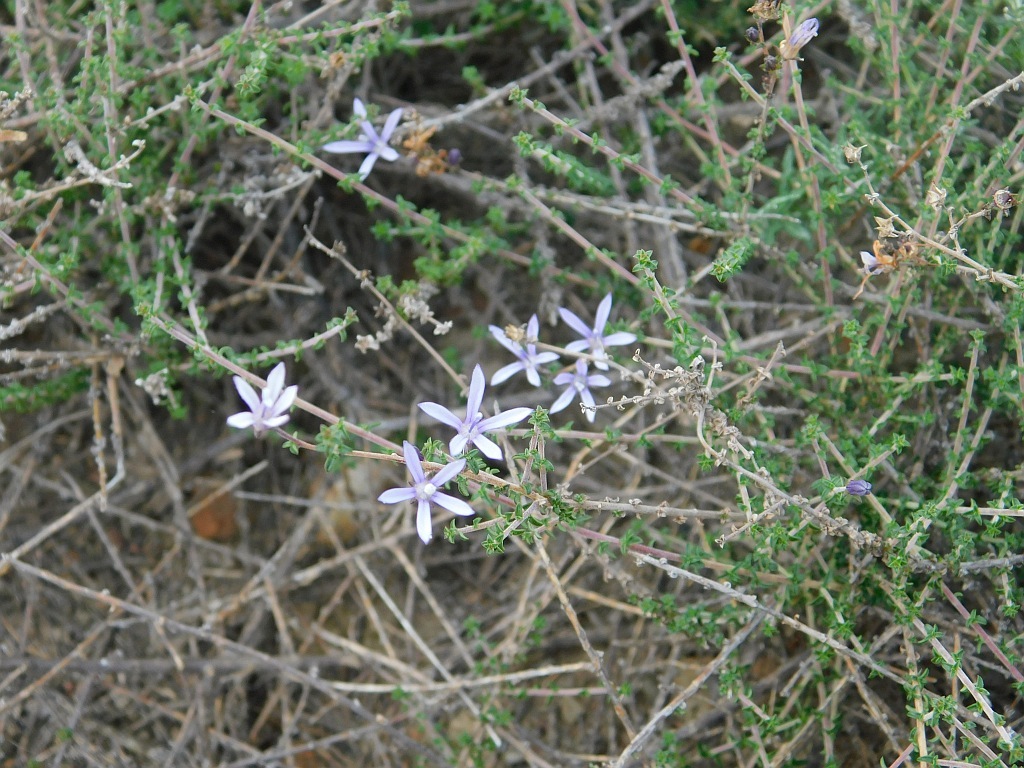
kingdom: Plantae
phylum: Tracheophyta
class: Magnoliopsida
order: Asterales
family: Campanulaceae
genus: Wahlenbergia
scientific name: Wahlenbergia tenella
